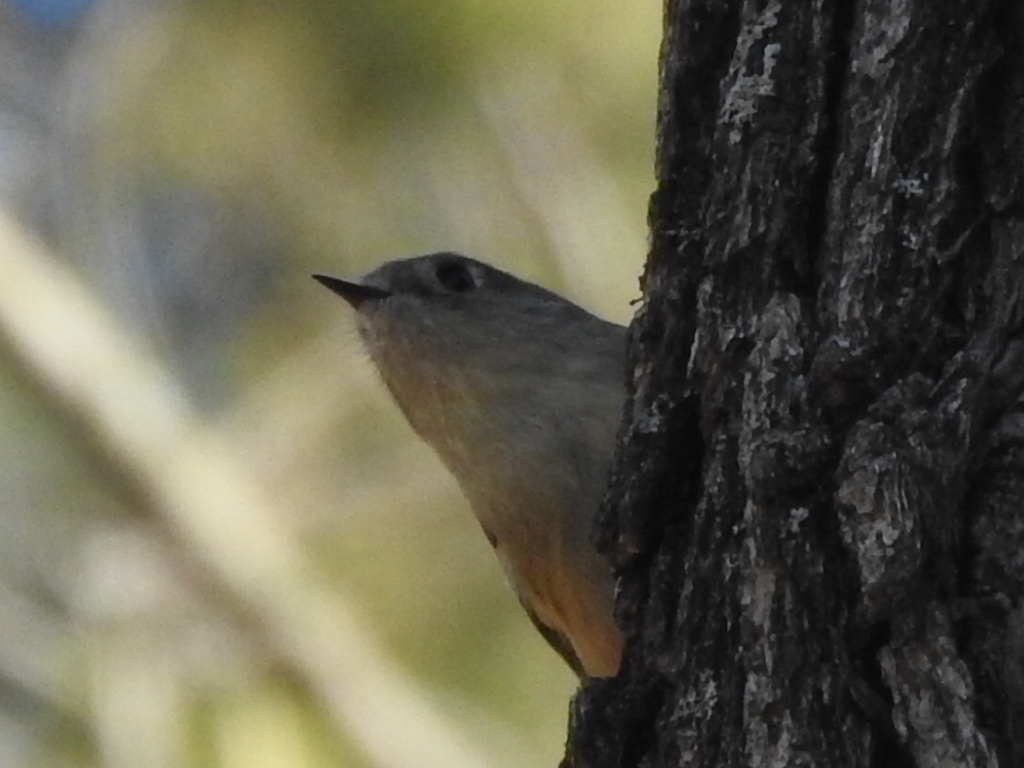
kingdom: Animalia
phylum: Chordata
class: Aves
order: Passeriformes
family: Regulidae
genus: Regulus
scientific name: Regulus calendula
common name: Ruby-crowned kinglet
